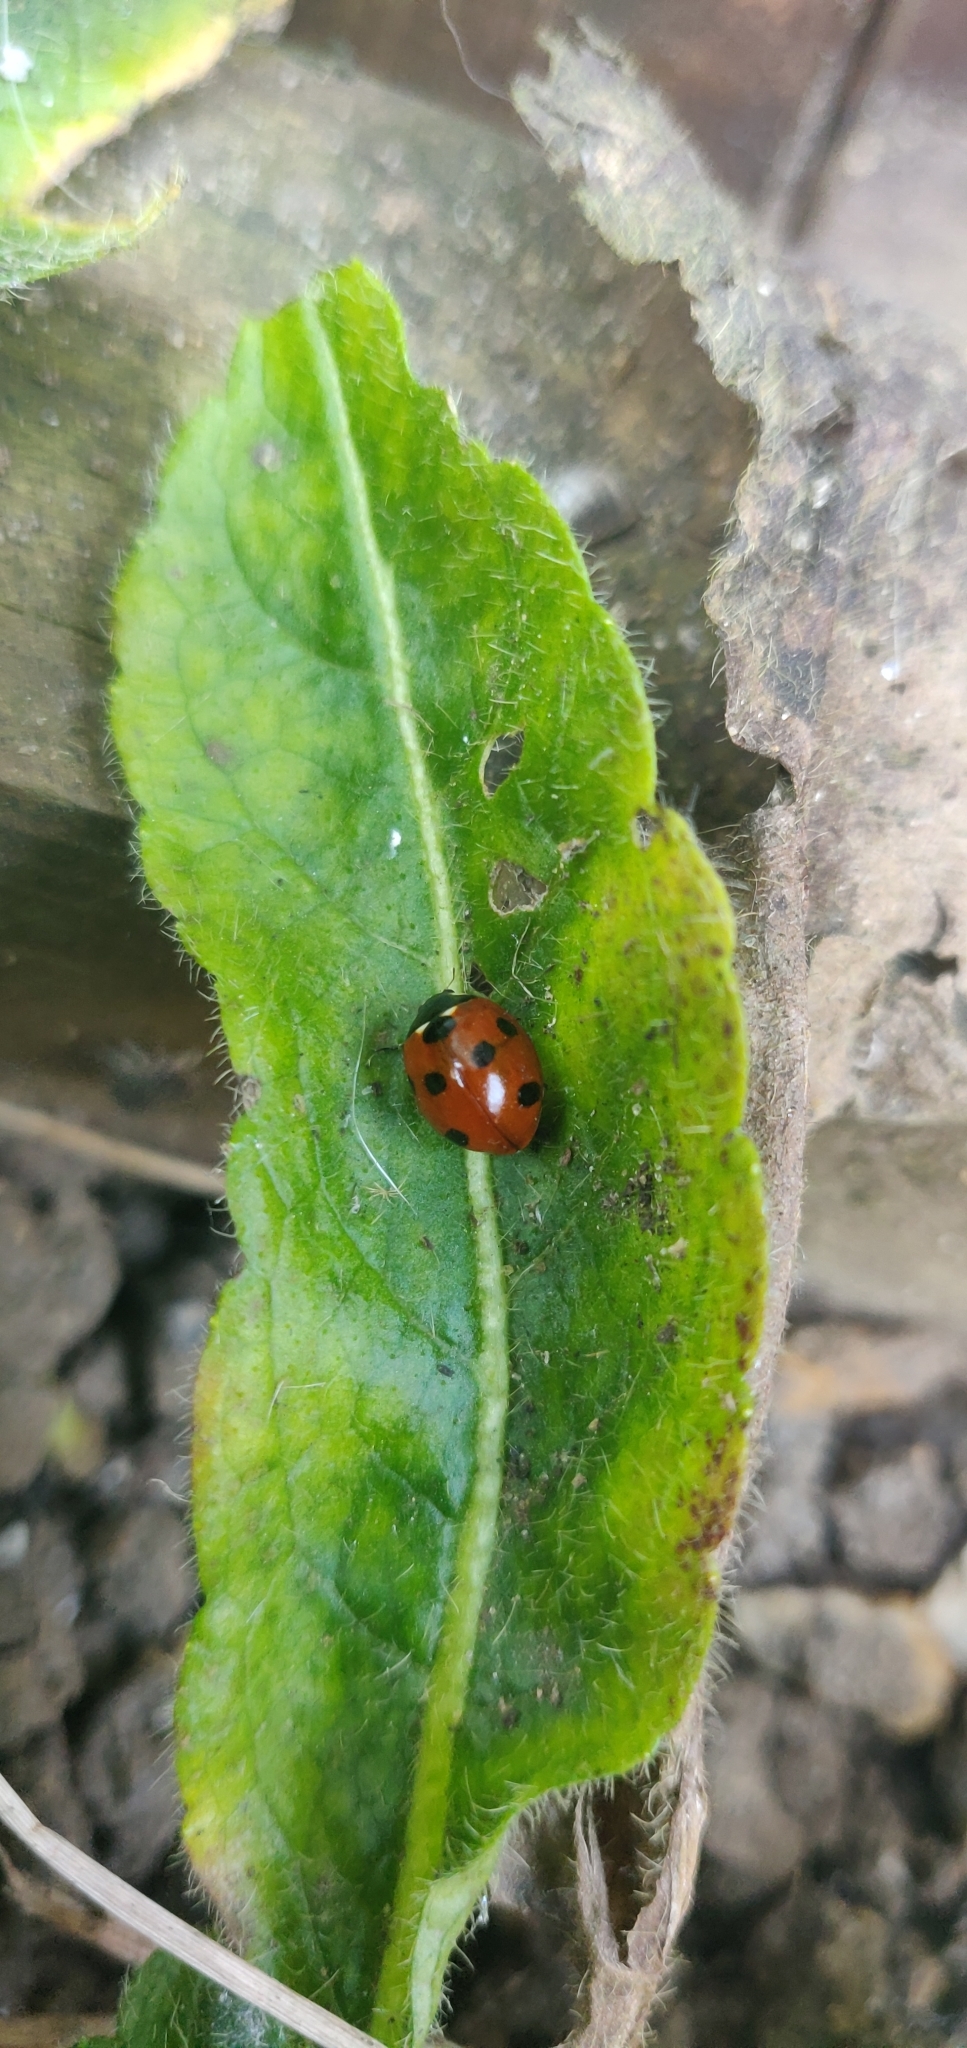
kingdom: Animalia
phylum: Arthropoda
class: Insecta
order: Coleoptera
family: Coccinellidae
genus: Coccinella
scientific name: Coccinella septempunctata
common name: Sevenspotted lady beetle
